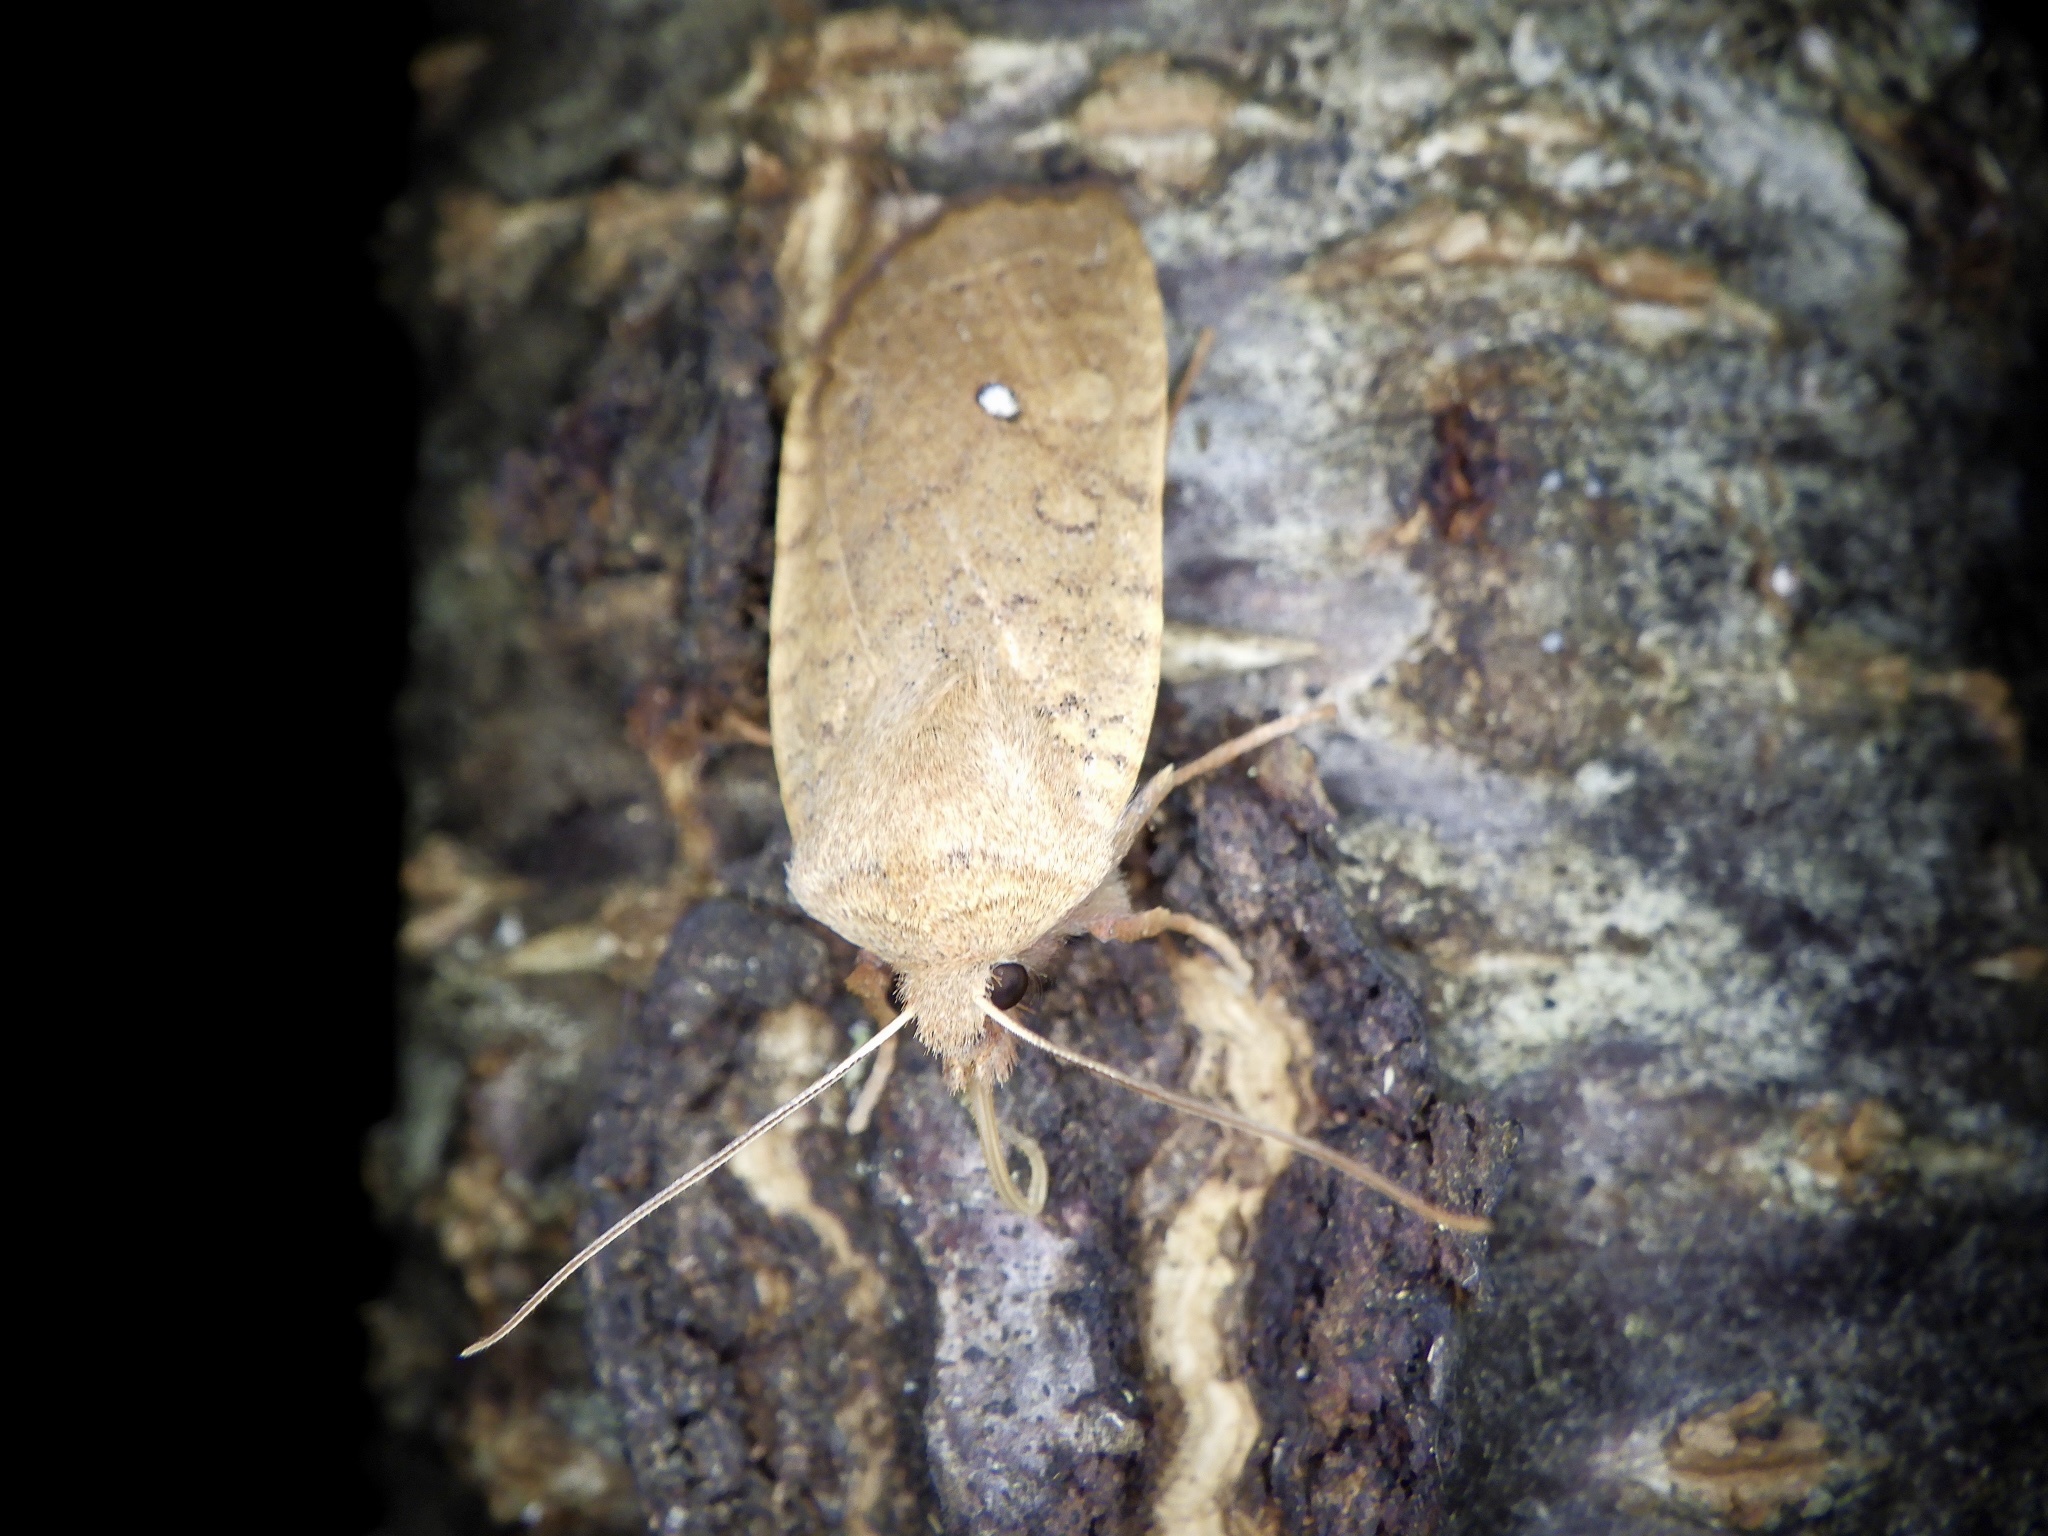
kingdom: Animalia
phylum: Arthropoda
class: Insecta
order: Lepidoptera
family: Noctuidae
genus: Conistra
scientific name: Conistra albipuncta
